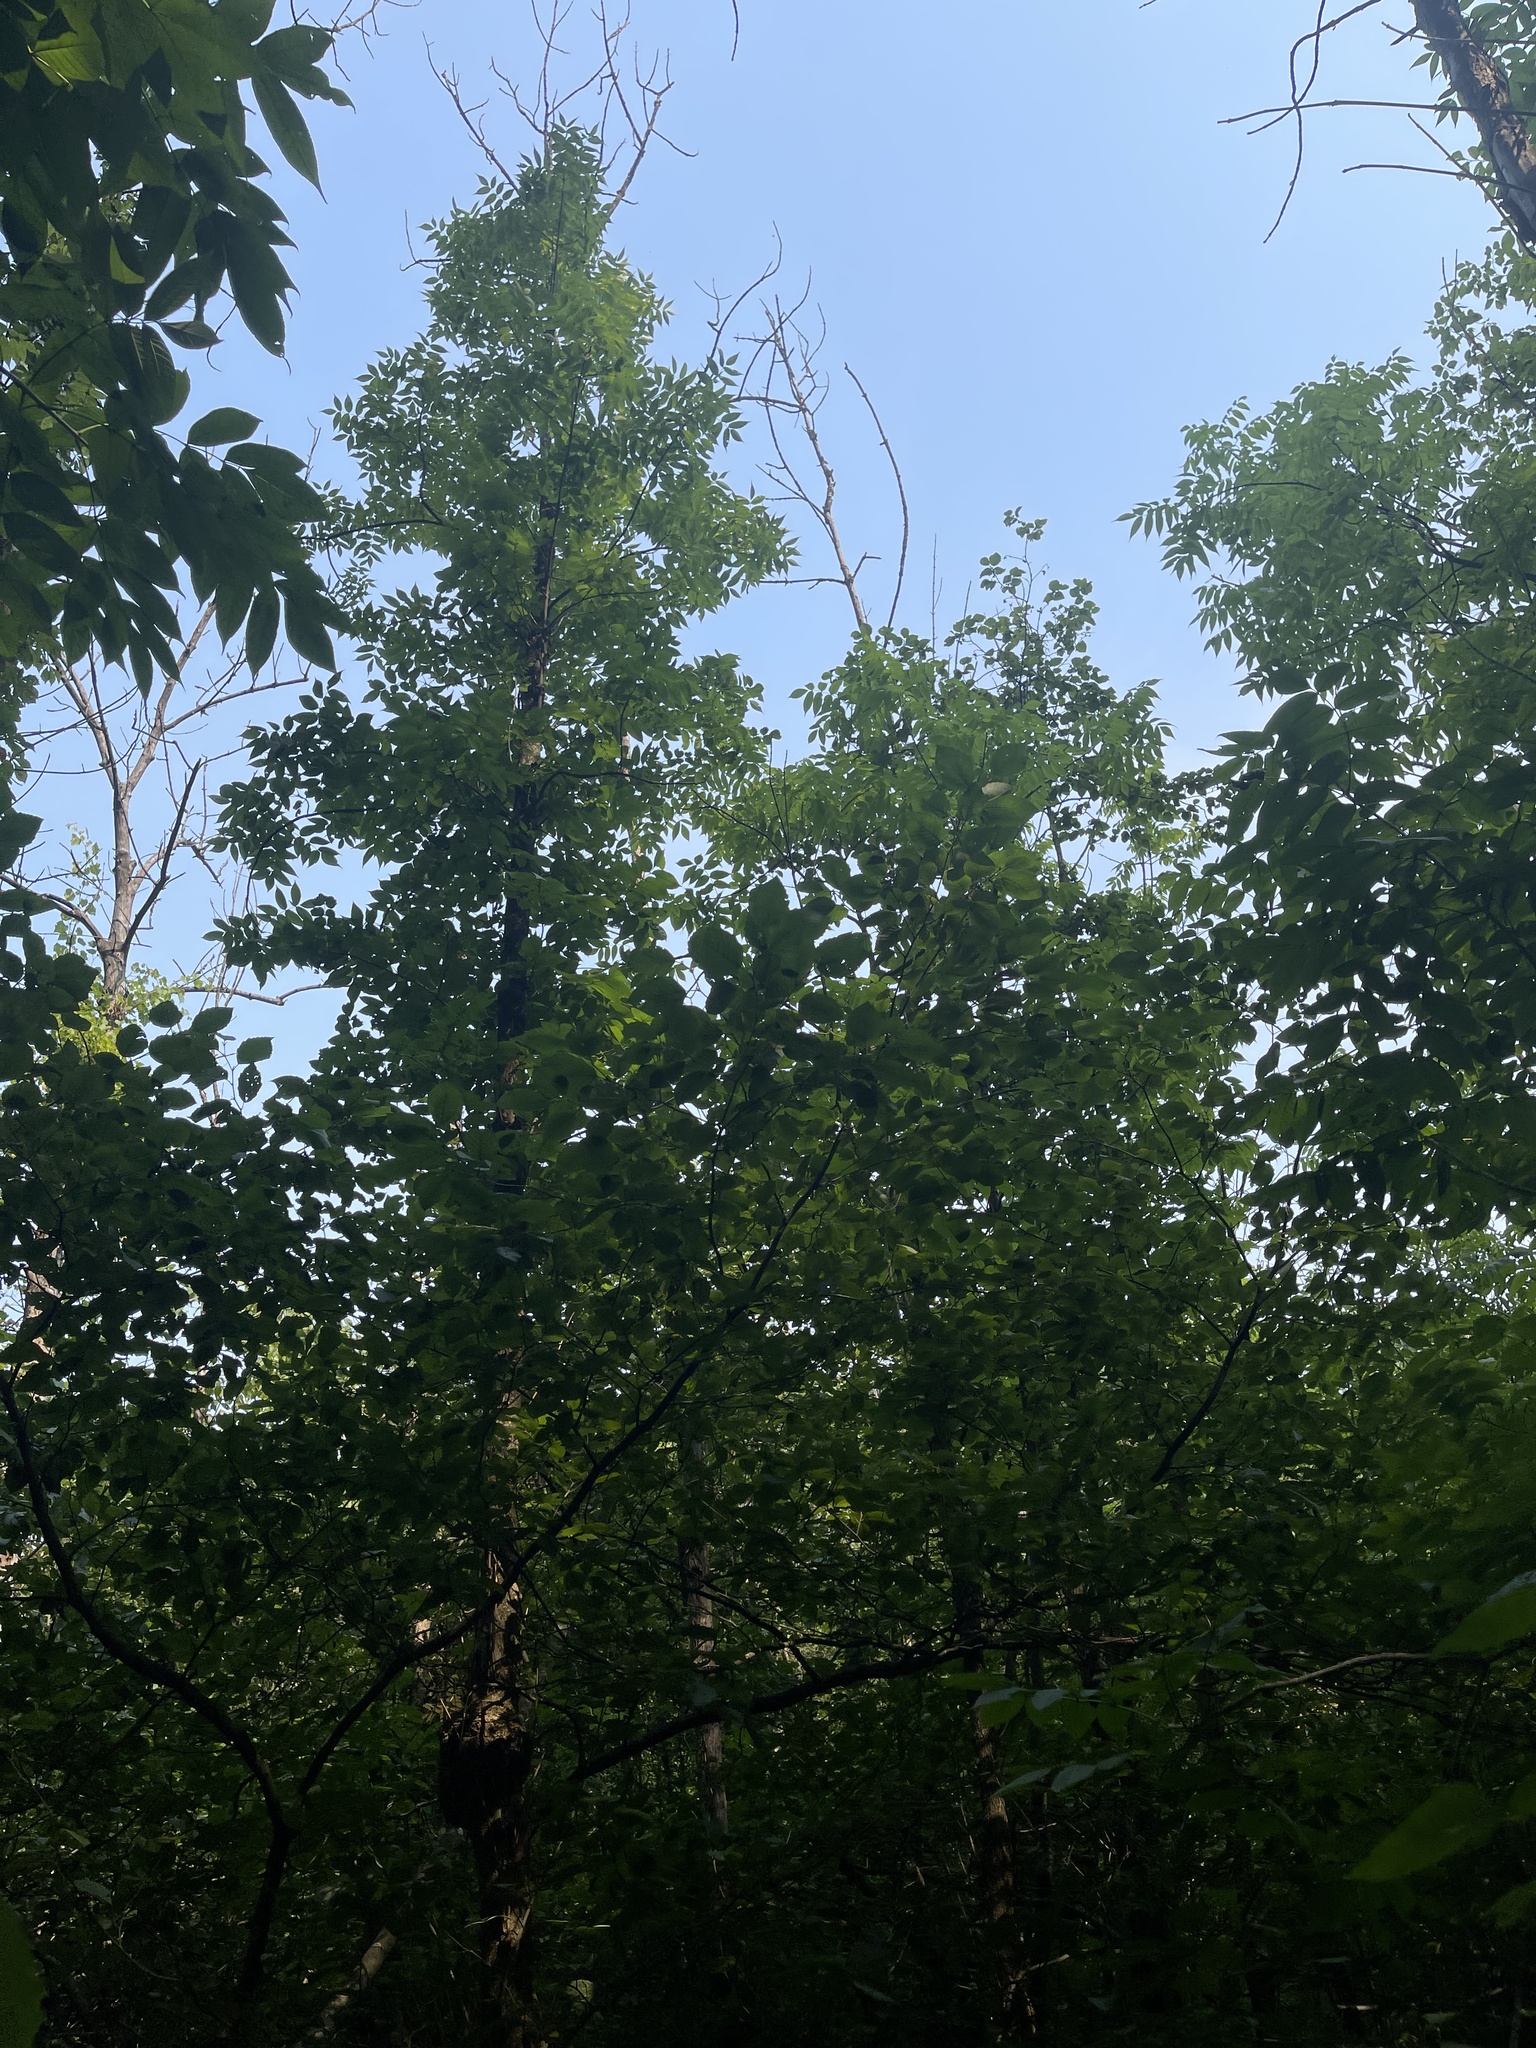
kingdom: Plantae
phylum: Tracheophyta
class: Magnoliopsida
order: Lamiales
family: Oleaceae
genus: Fraxinus
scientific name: Fraxinus nigra
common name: Black ash
